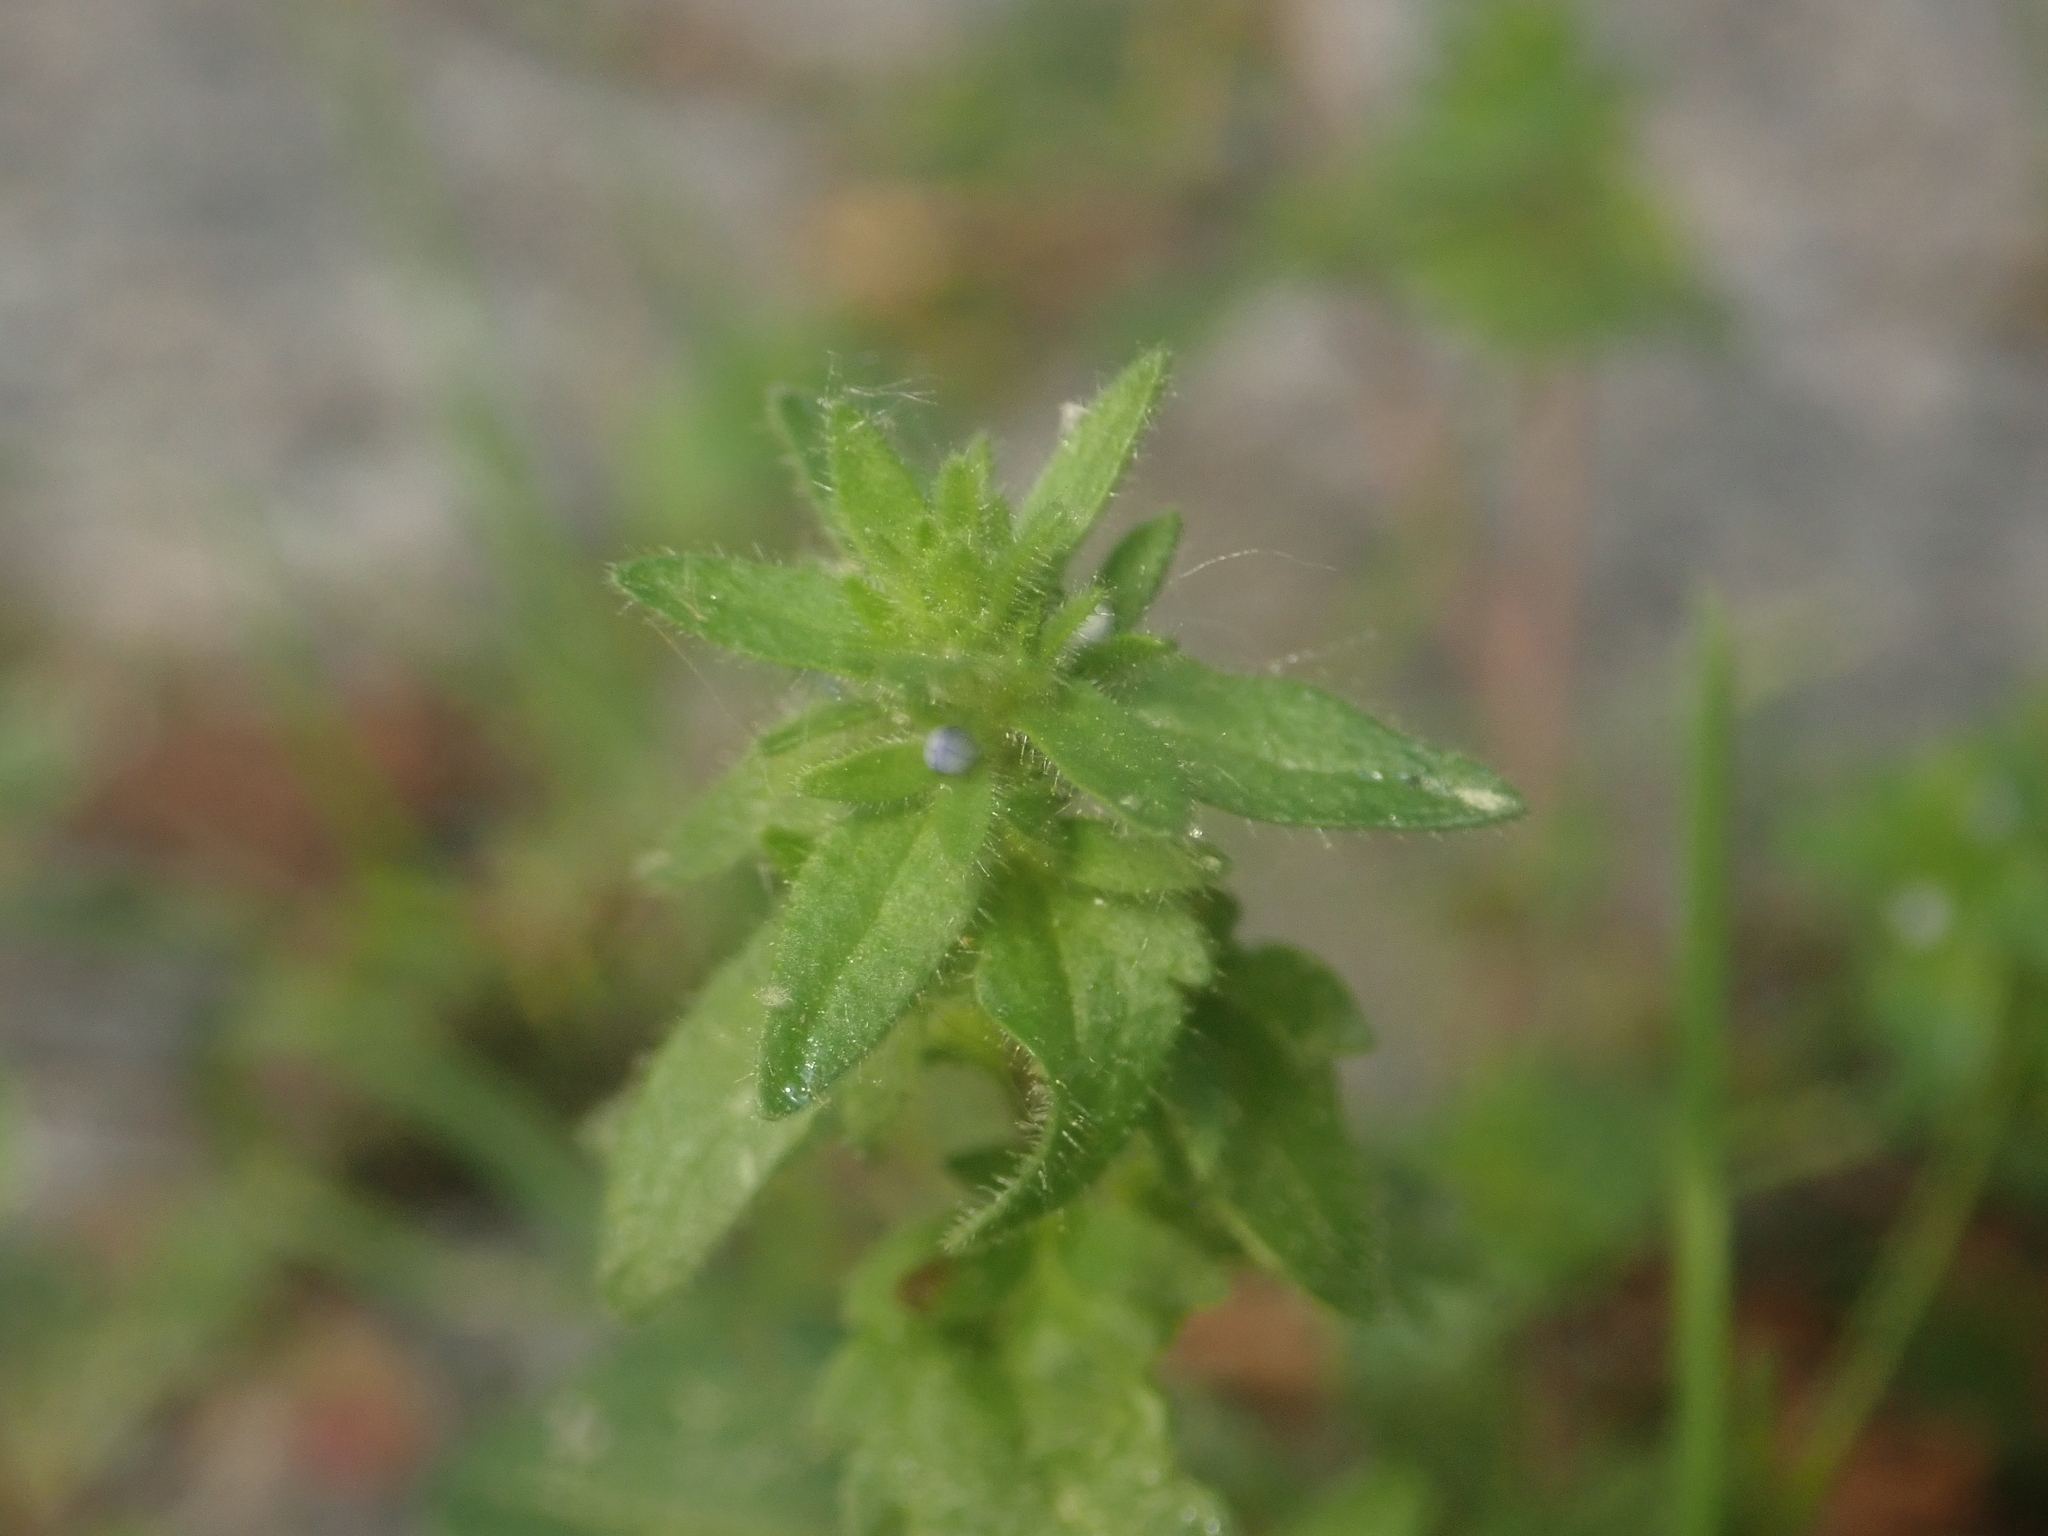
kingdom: Plantae
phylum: Tracheophyta
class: Magnoliopsida
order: Lamiales
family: Plantaginaceae
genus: Veronica
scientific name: Veronica arvensis
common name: Corn speedwell
